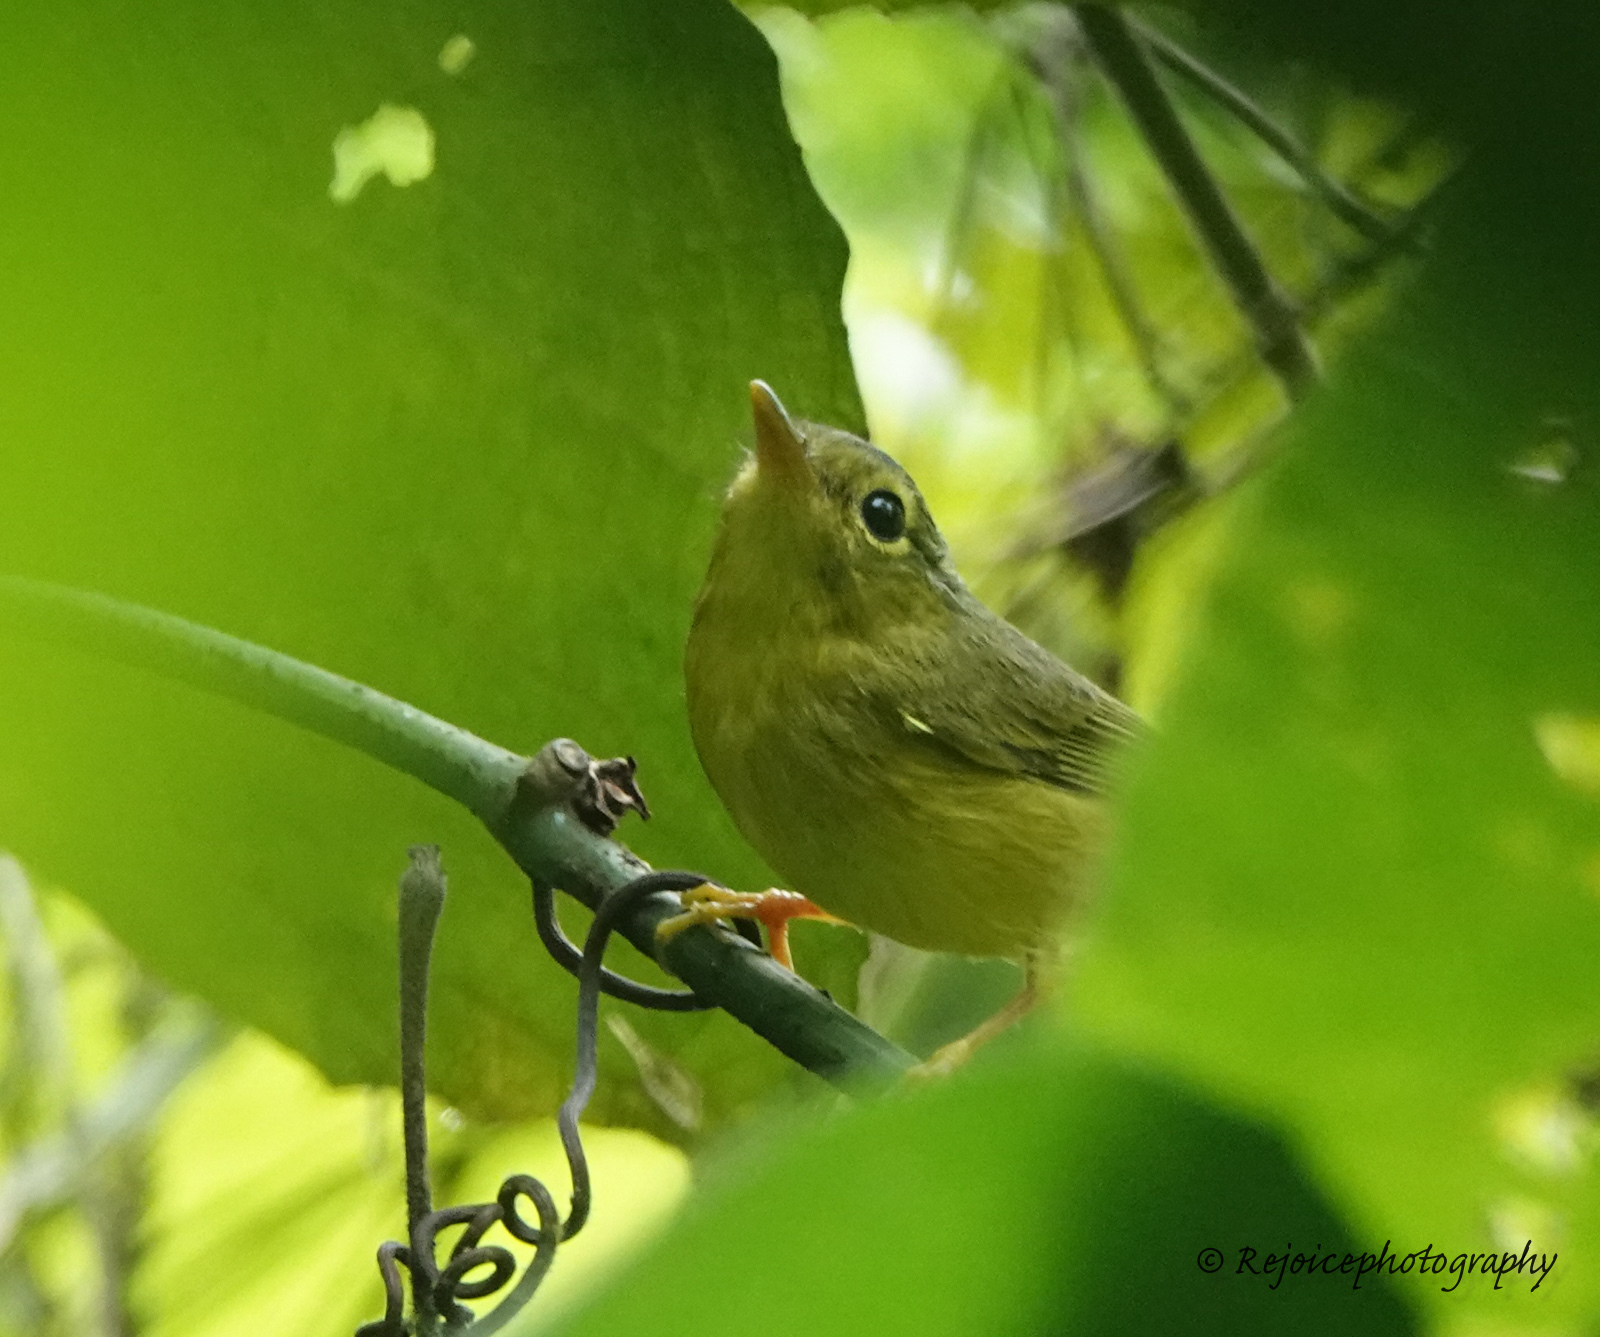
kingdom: Animalia
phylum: Chordata
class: Aves
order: Passeriformes
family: Phylloscopidae
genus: Seicercus
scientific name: Seicercus burkii
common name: Green-crowned warbler
